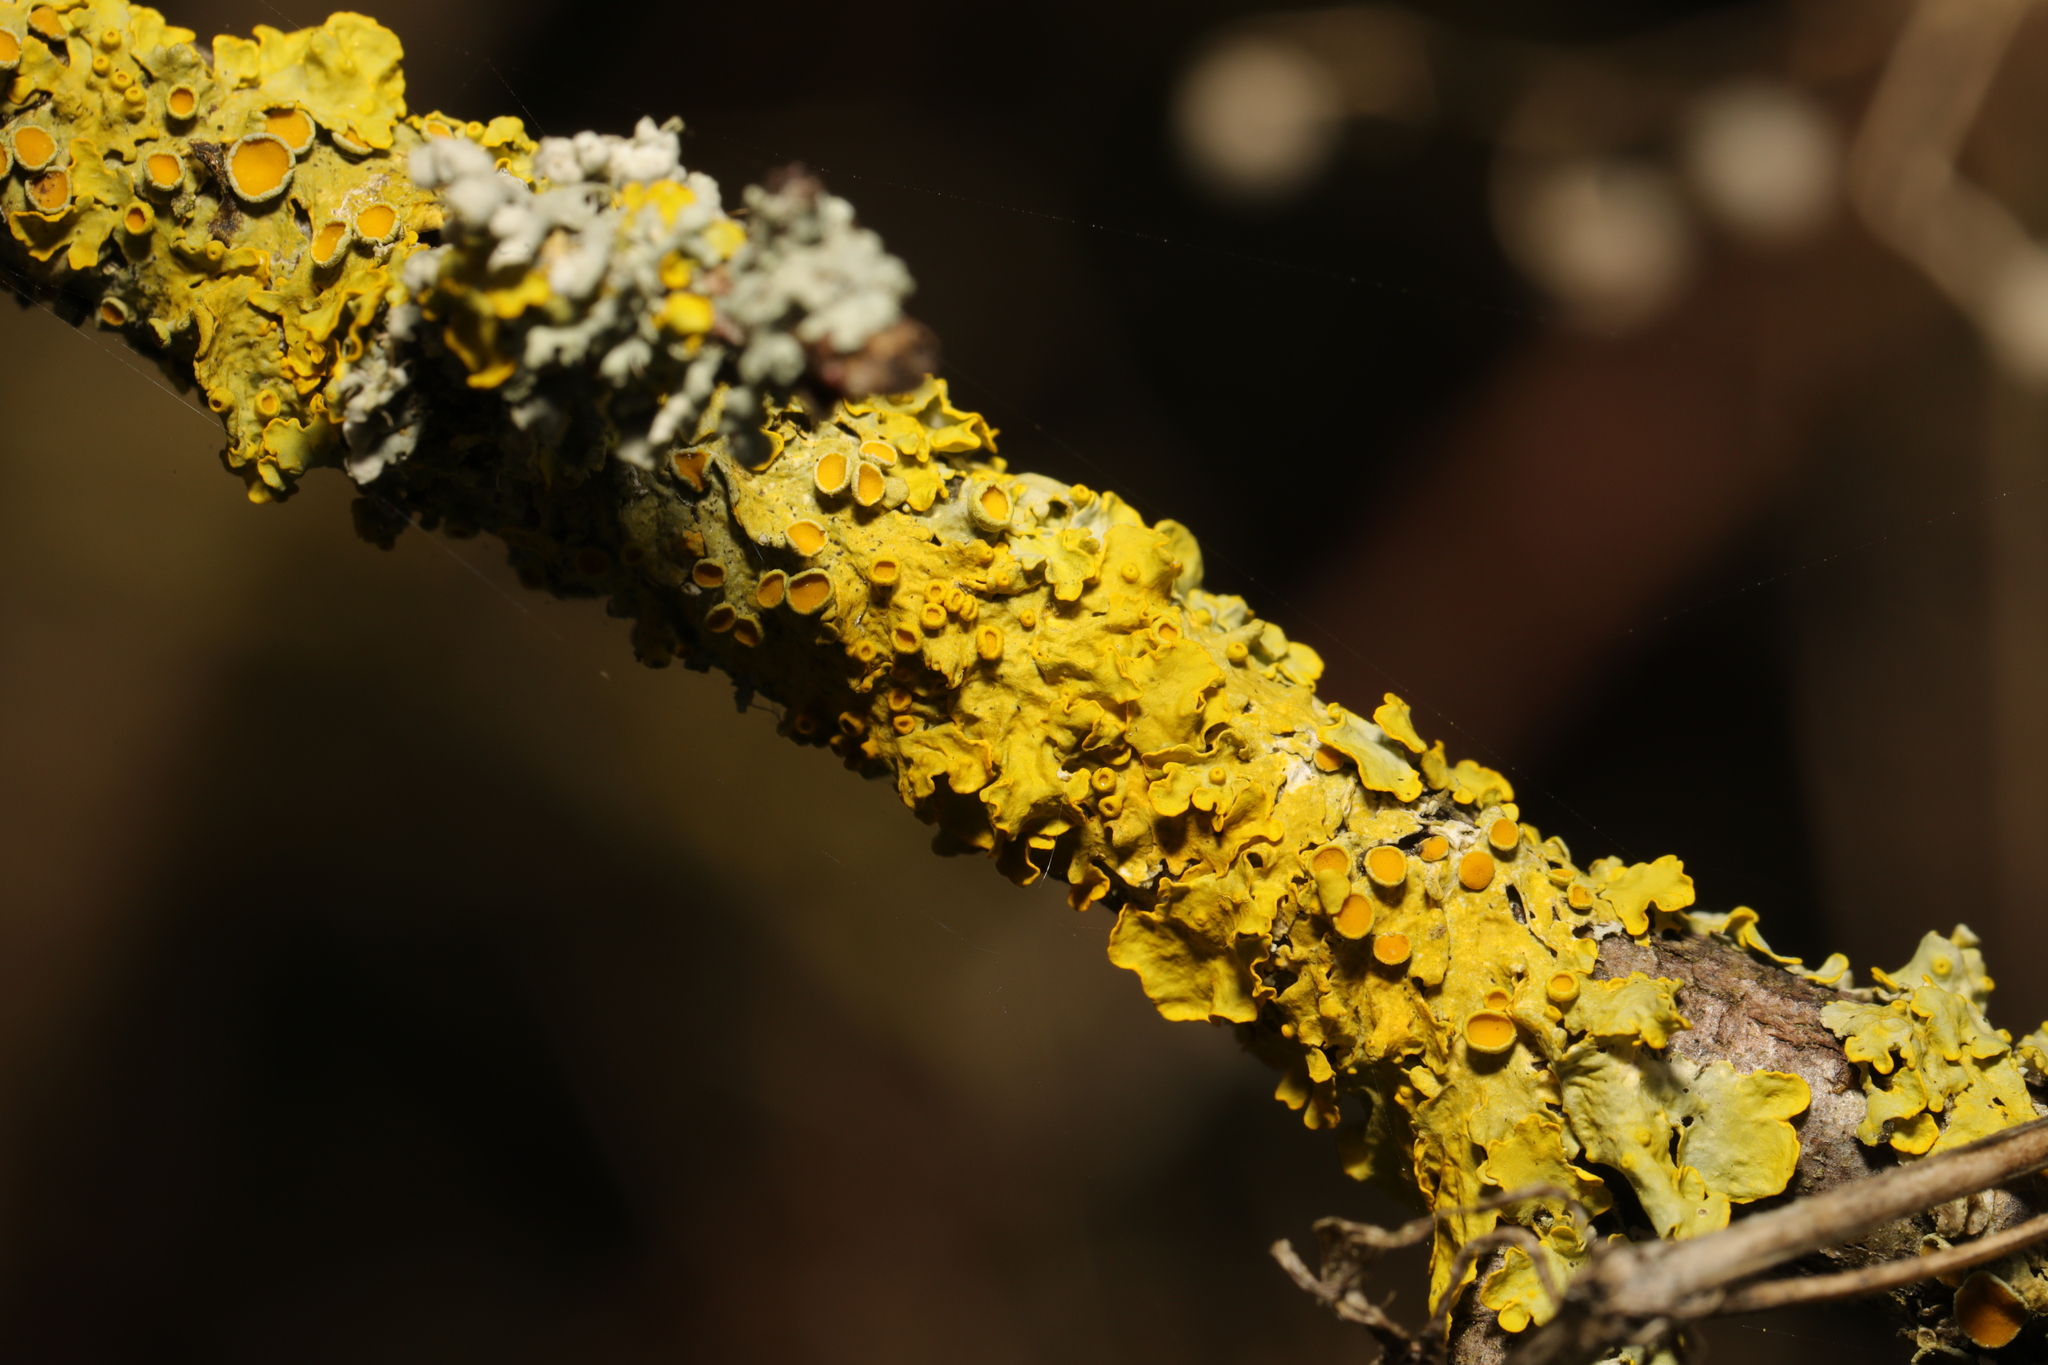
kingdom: Fungi
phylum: Ascomycota
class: Lecanoromycetes
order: Teloschistales
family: Teloschistaceae
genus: Xanthoria
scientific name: Xanthoria parietina
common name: Common orange lichen
